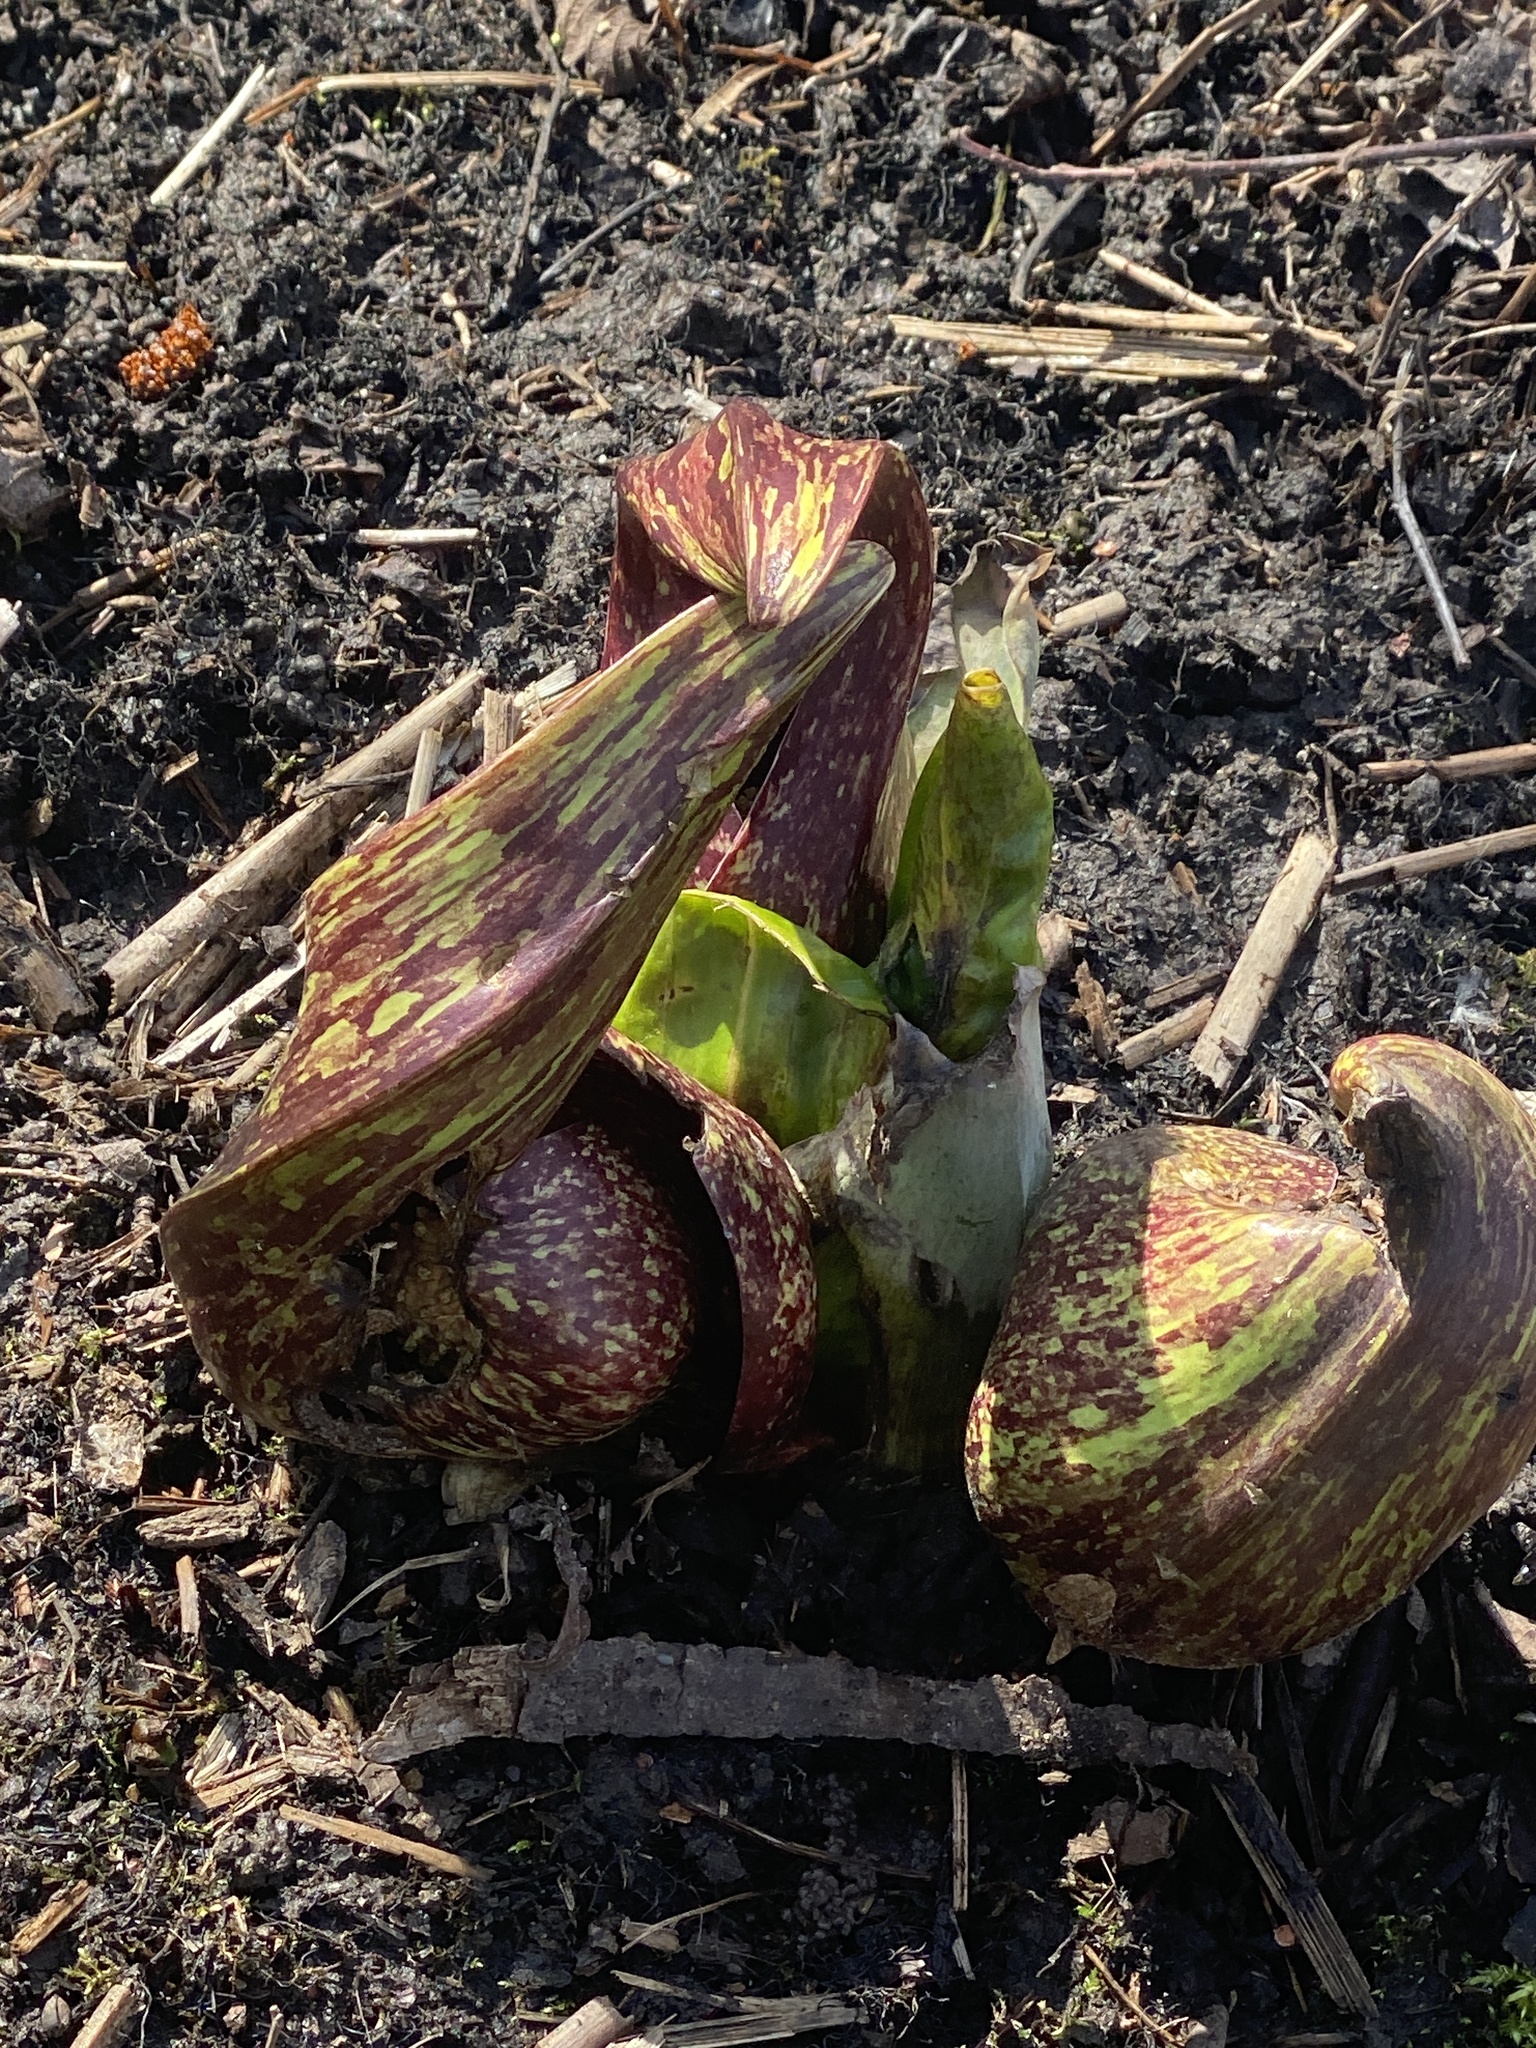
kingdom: Plantae
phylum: Tracheophyta
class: Liliopsida
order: Alismatales
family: Araceae
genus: Symplocarpus
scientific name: Symplocarpus foetidus
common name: Eastern skunk cabbage
